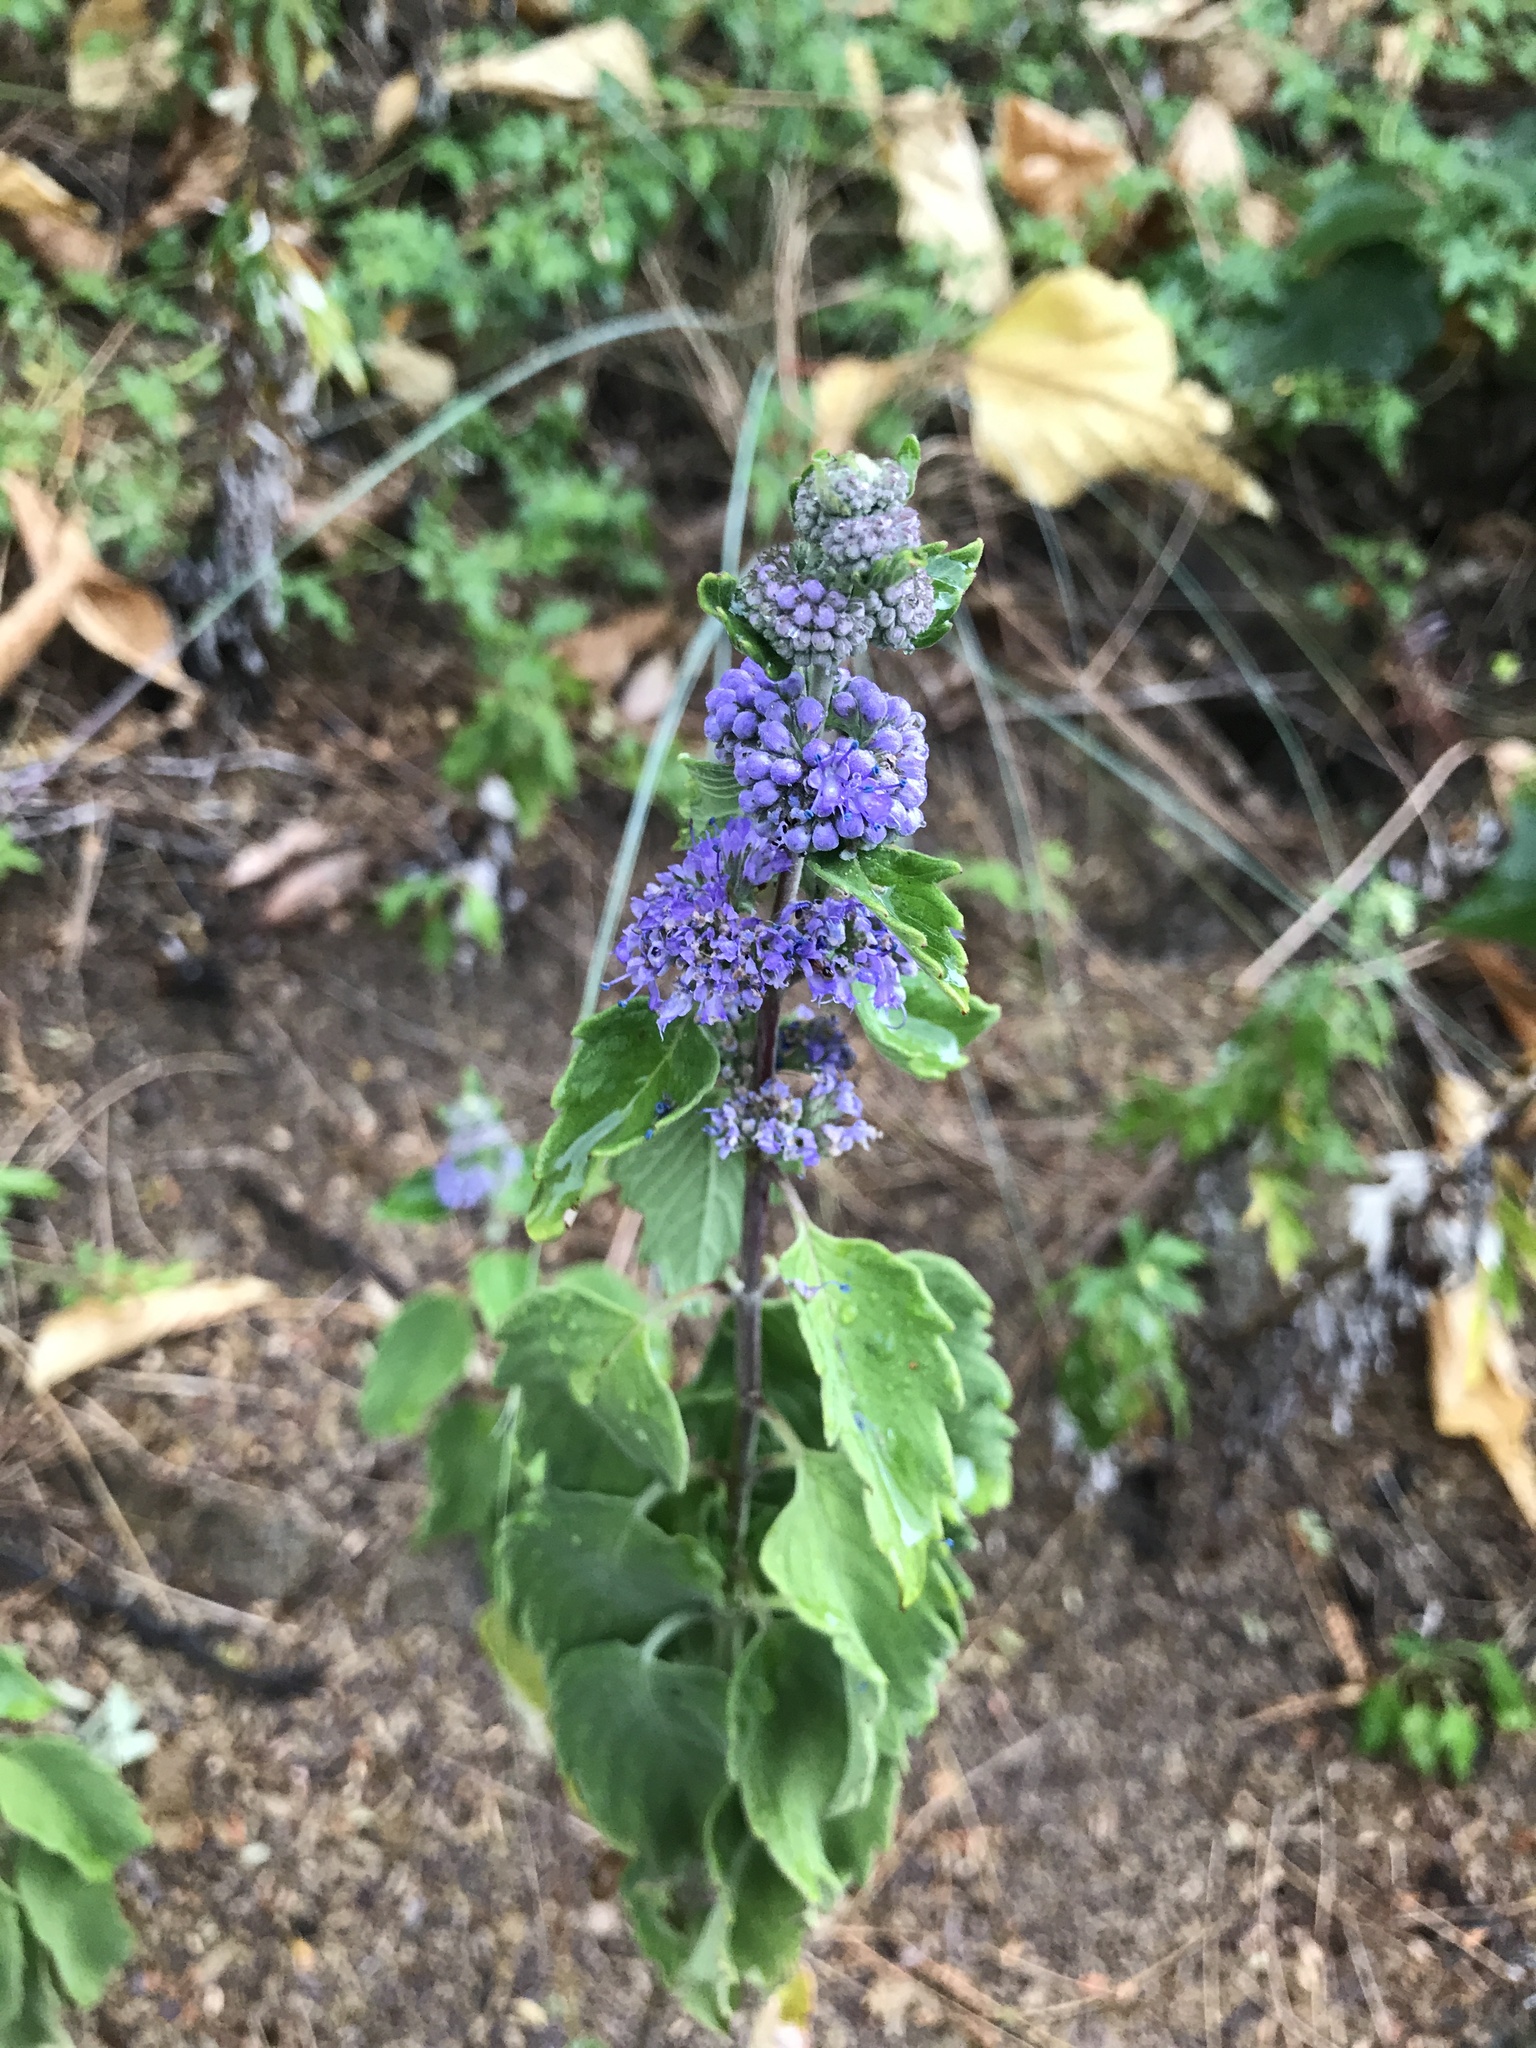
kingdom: Plantae
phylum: Tracheophyta
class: Magnoliopsida
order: Lamiales
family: Lamiaceae
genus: Caryopteris
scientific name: Caryopteris incana
